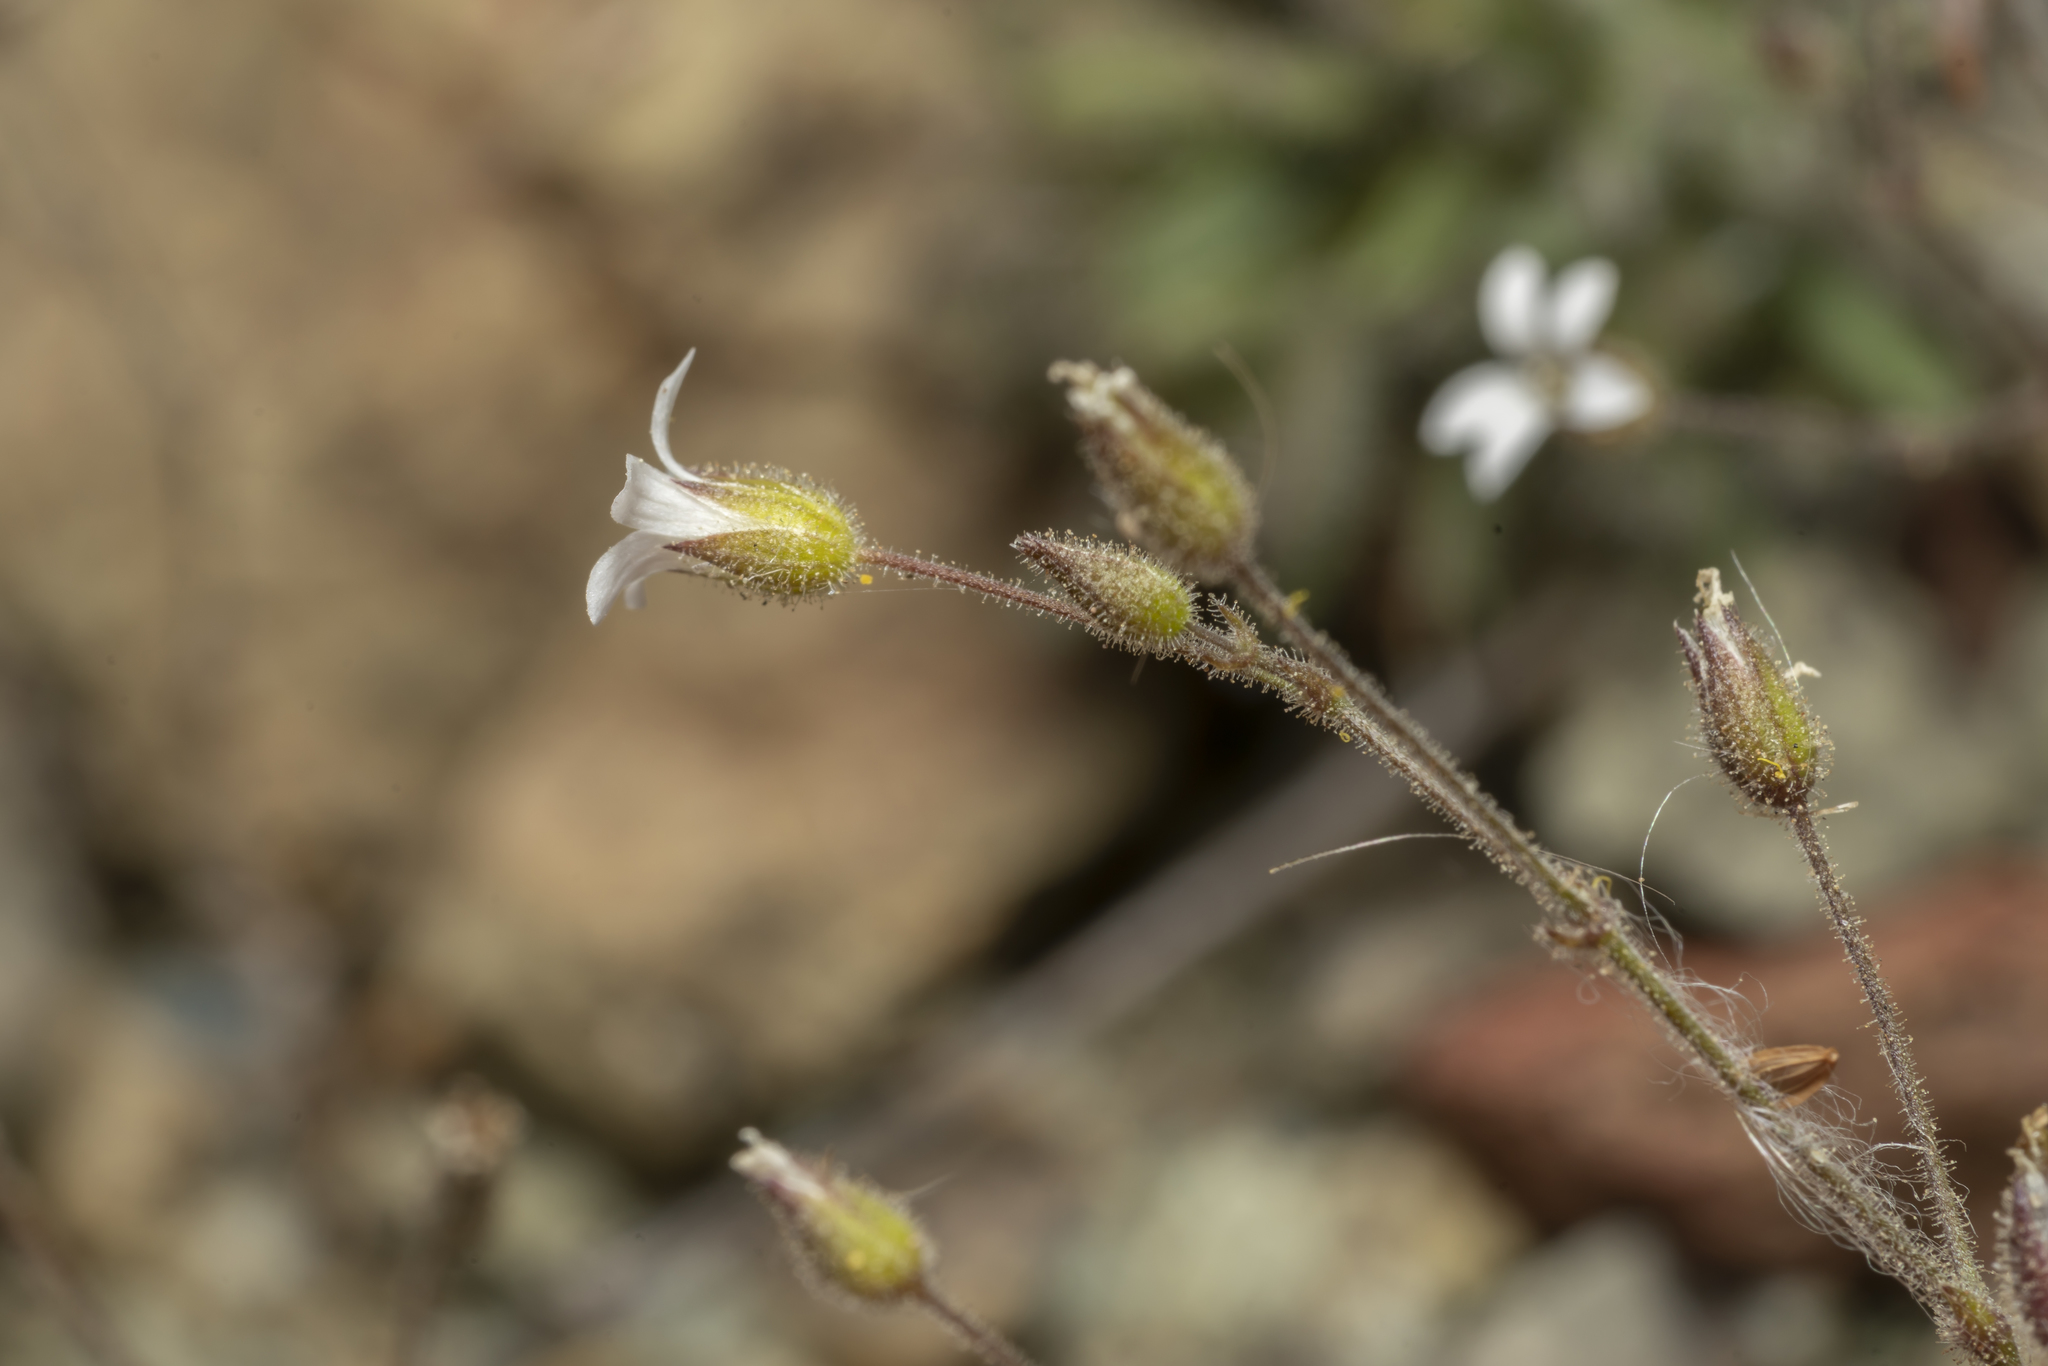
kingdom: Plantae
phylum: Tracheophyta
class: Magnoliopsida
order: Caryophyllales
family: Caryophyllaceae
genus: Arenaria
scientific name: Arenaria rhodia
